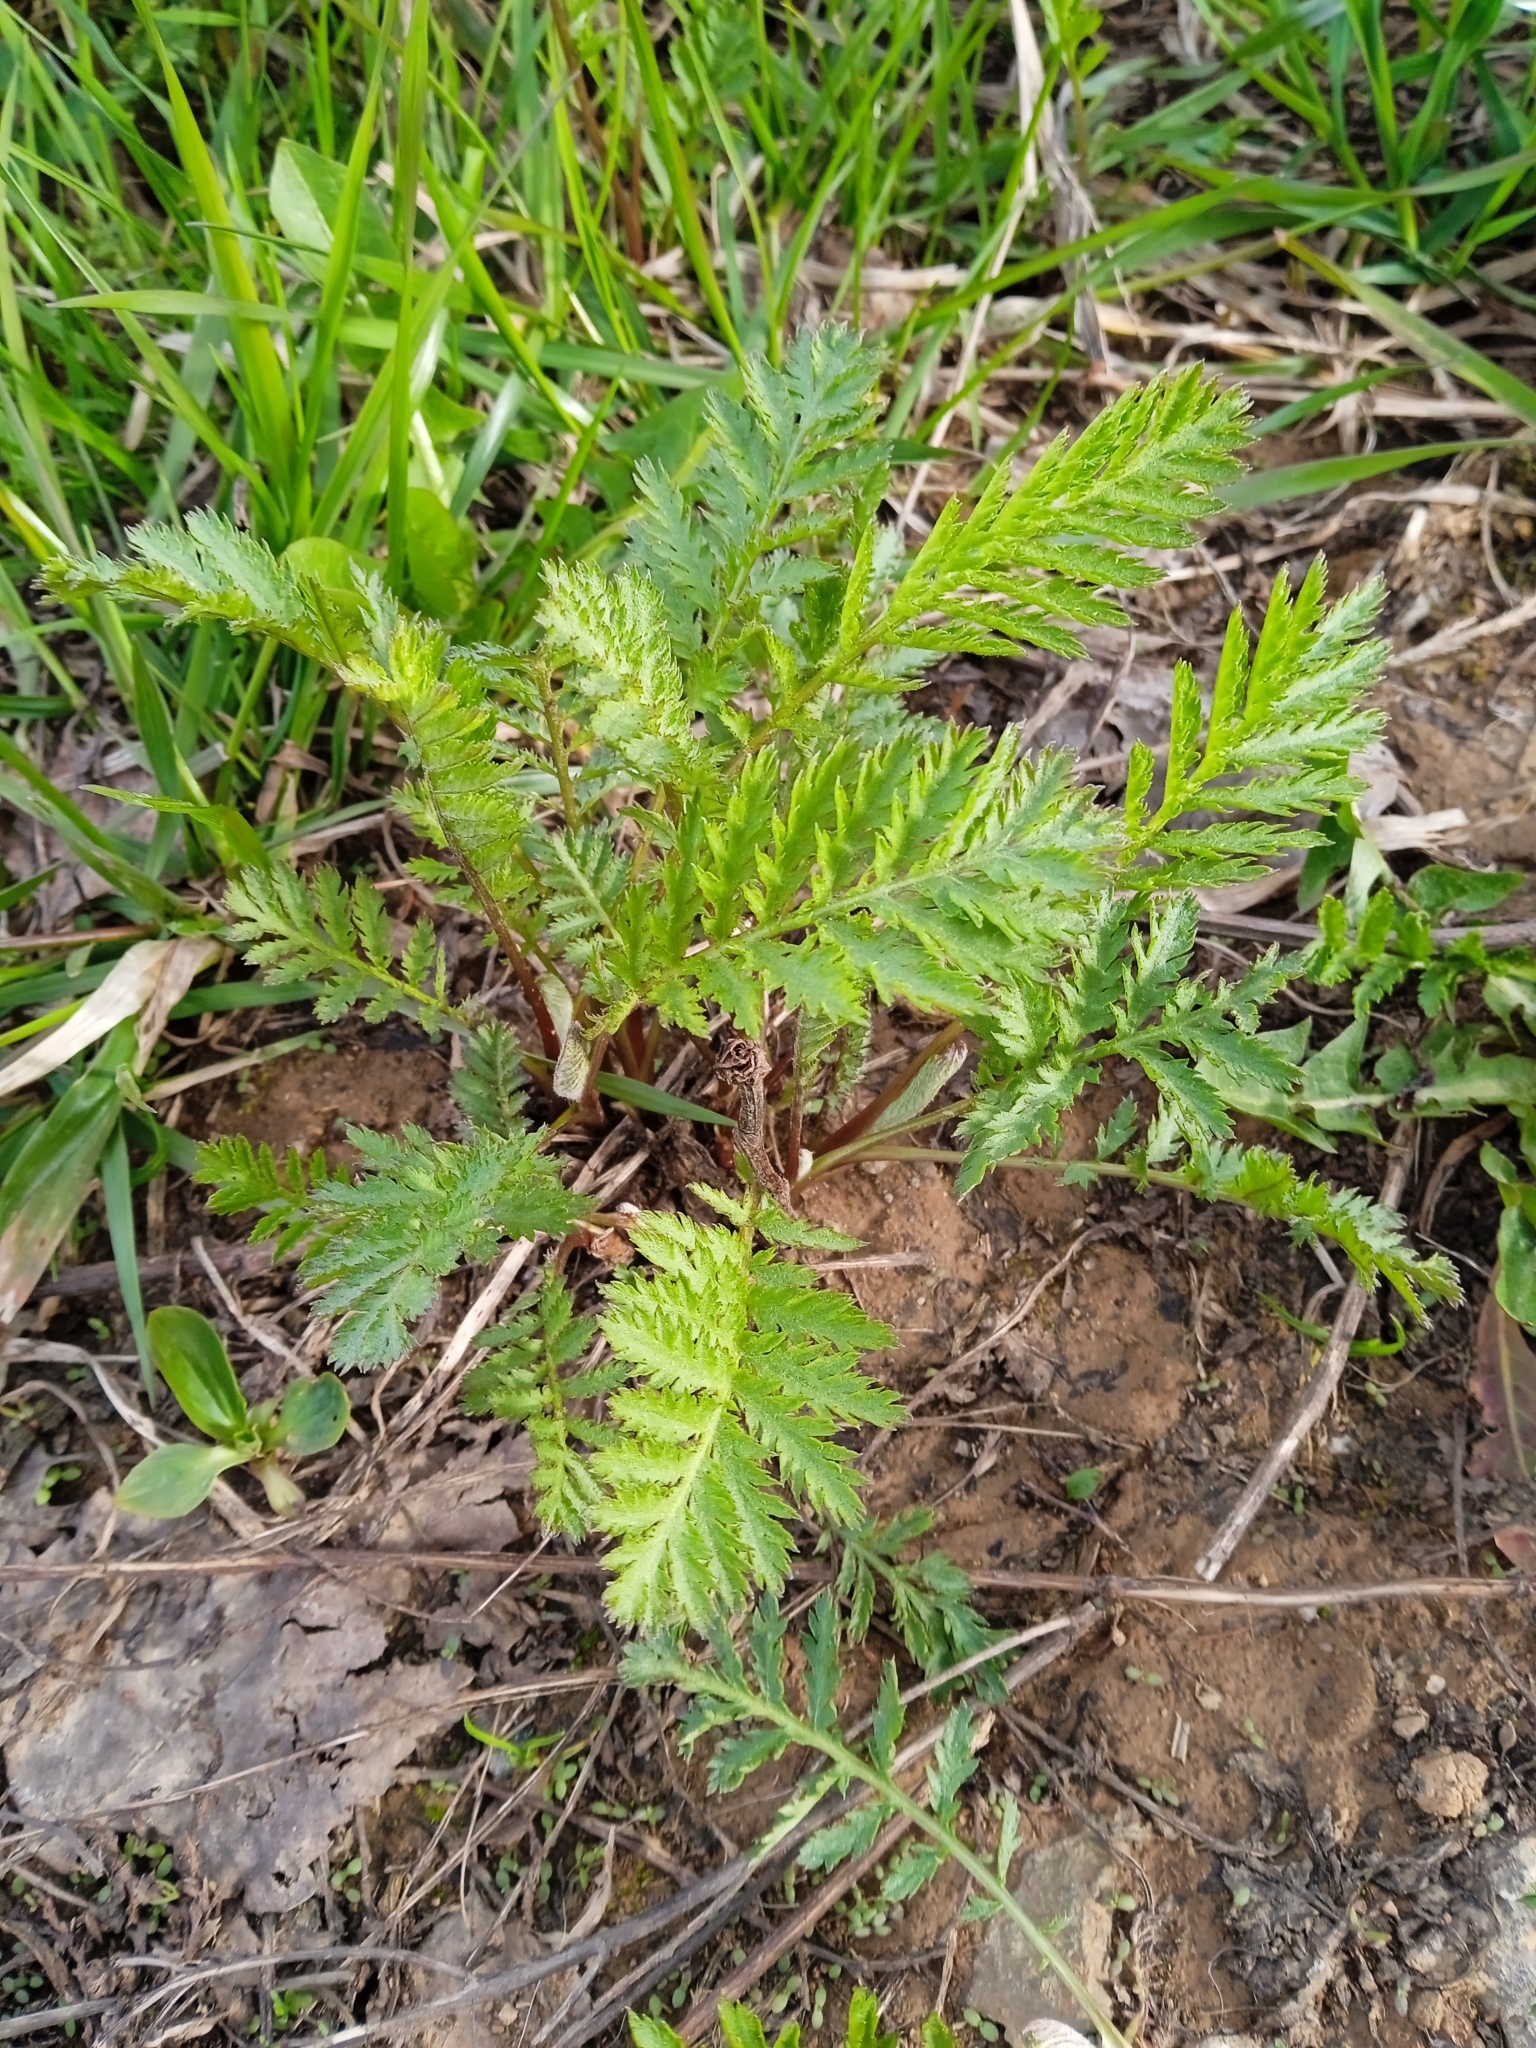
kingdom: Plantae
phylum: Tracheophyta
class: Magnoliopsida
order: Asterales
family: Asteraceae
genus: Tanacetum
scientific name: Tanacetum vulgare
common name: Common tansy
